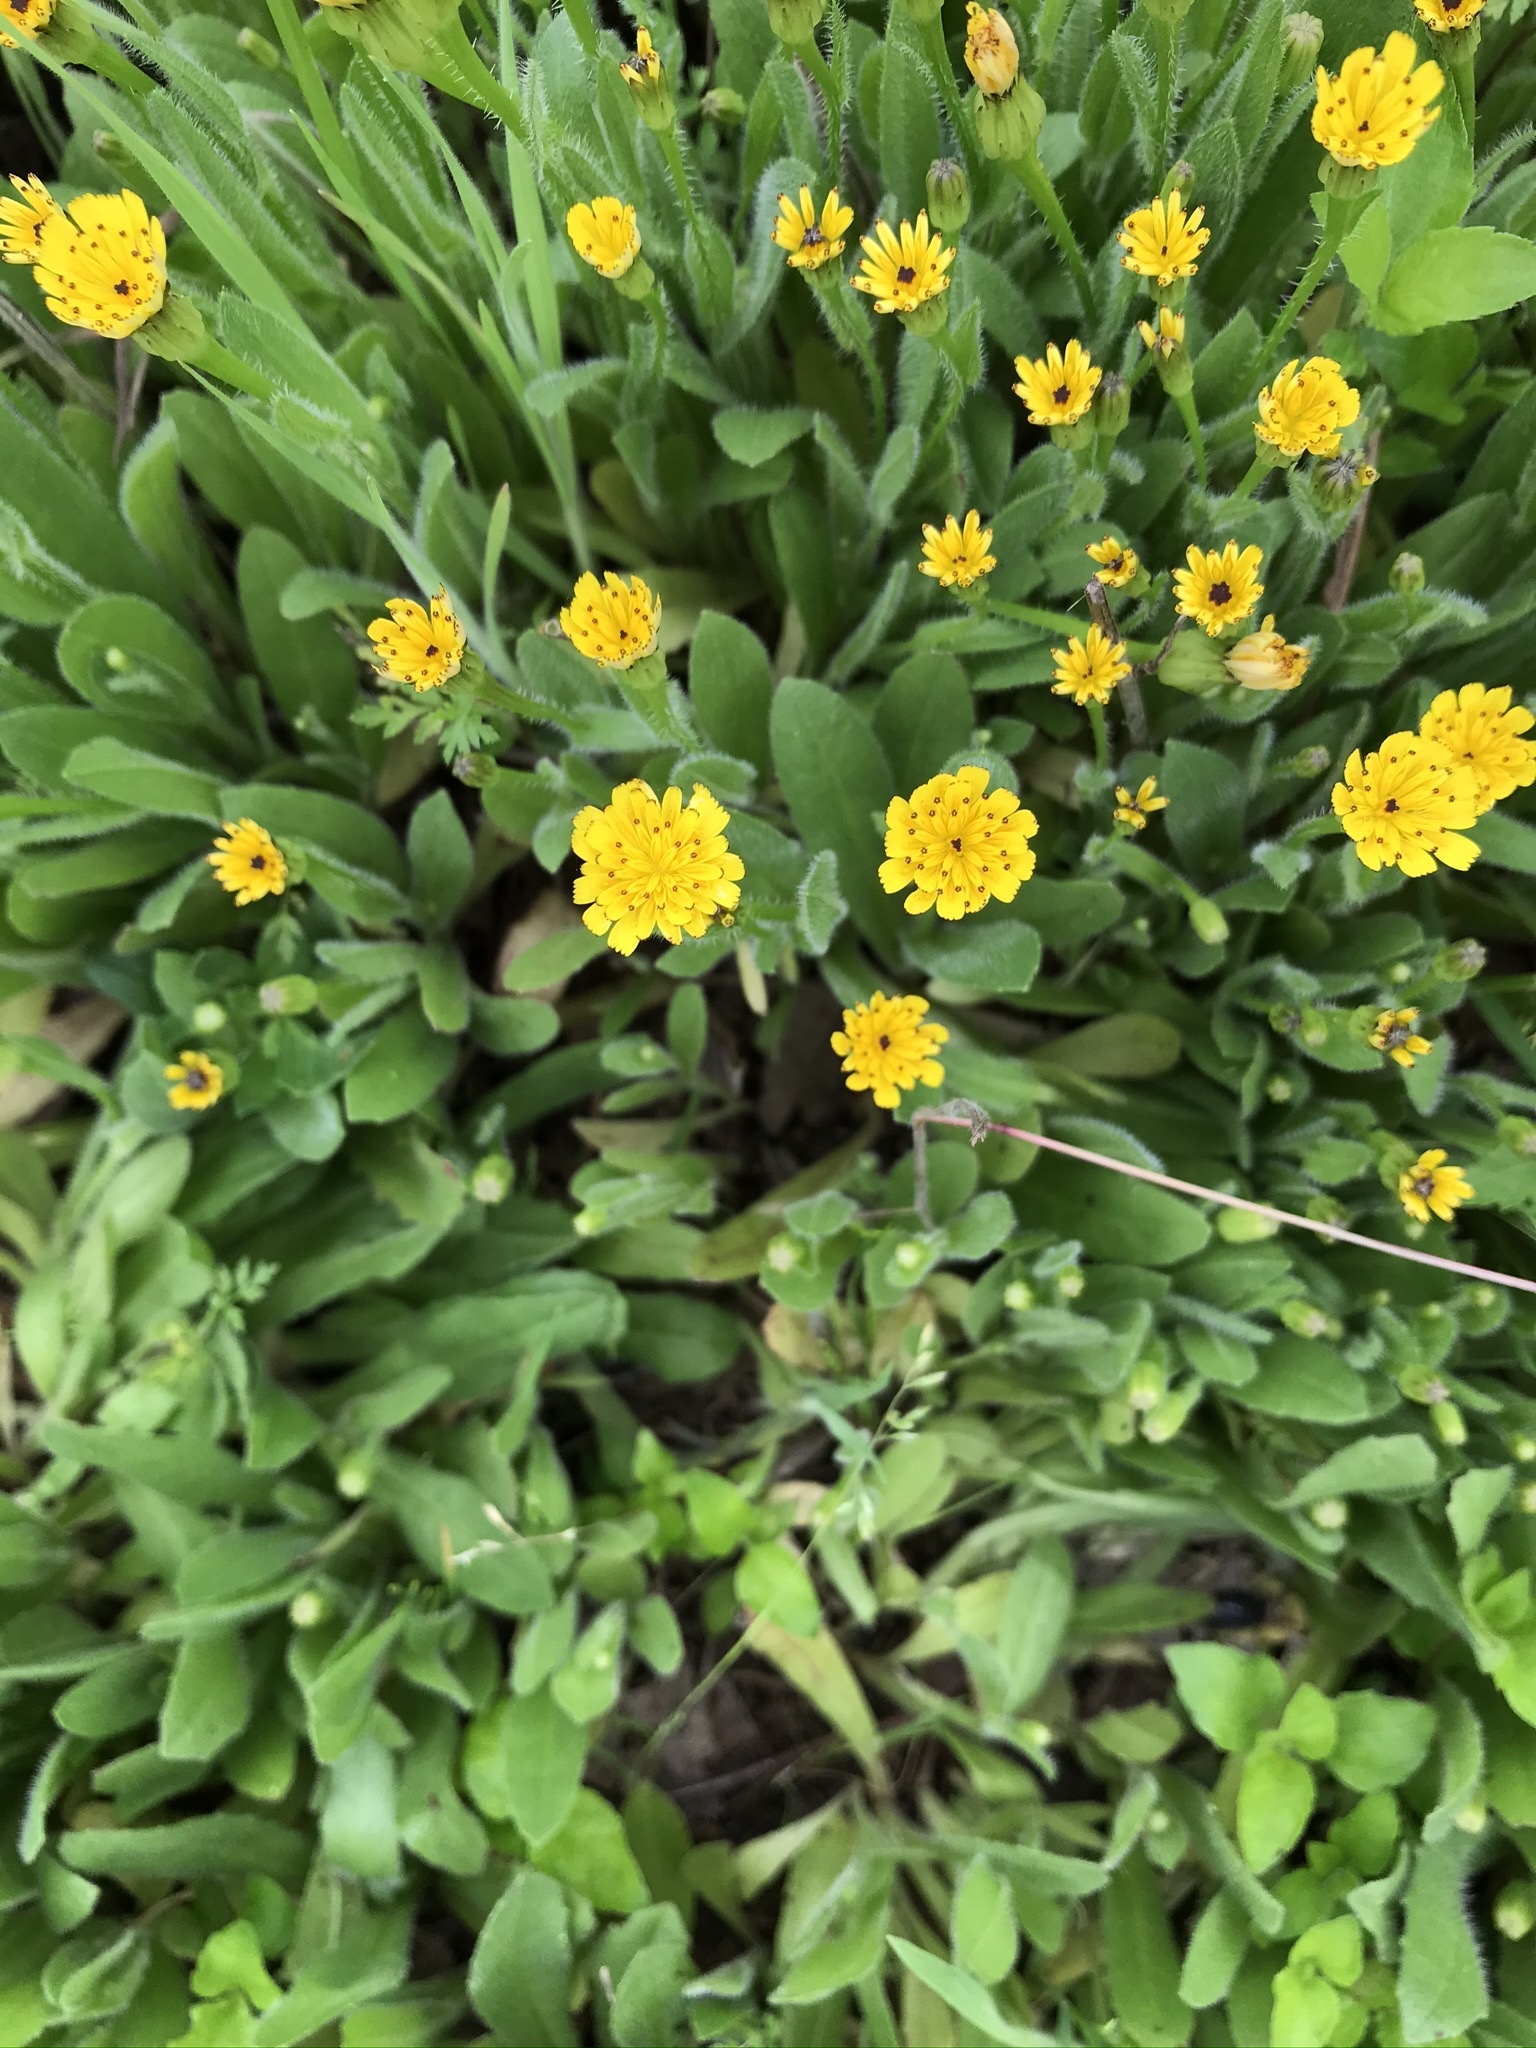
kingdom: Plantae
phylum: Tracheophyta
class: Magnoliopsida
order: Asterales
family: Asteraceae
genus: Hedypnois
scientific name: Hedypnois rhagadioloides
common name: Cretan weed
